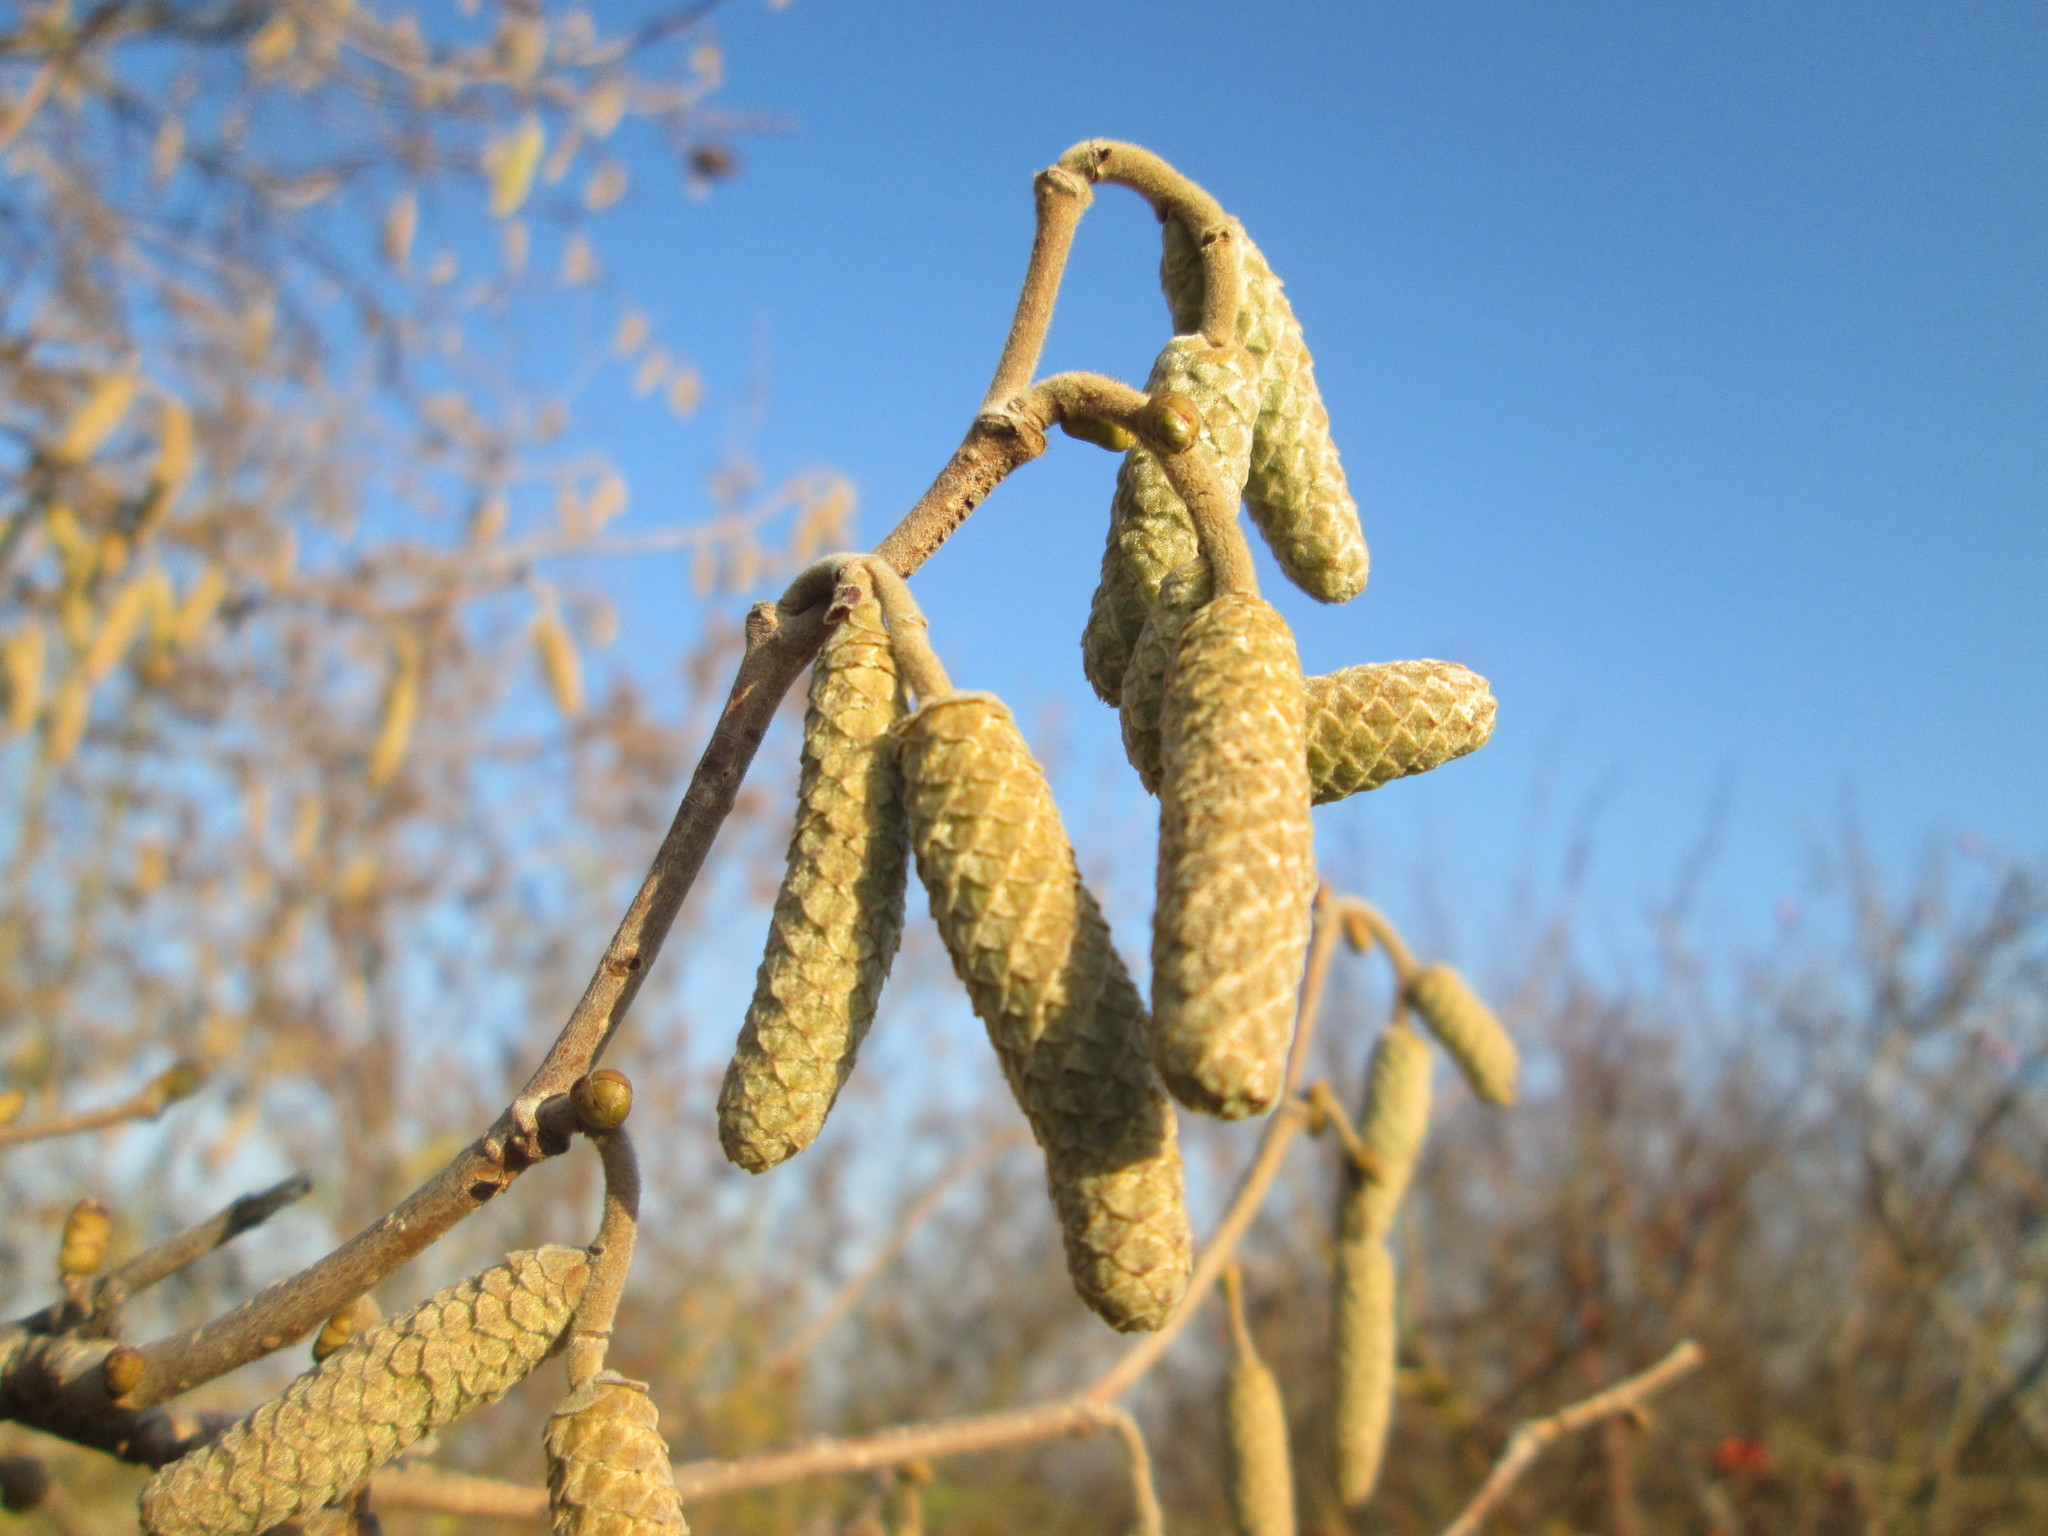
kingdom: Plantae
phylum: Tracheophyta
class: Magnoliopsida
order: Fagales
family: Betulaceae
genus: Corylus
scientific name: Corylus avellana
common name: European hazel
